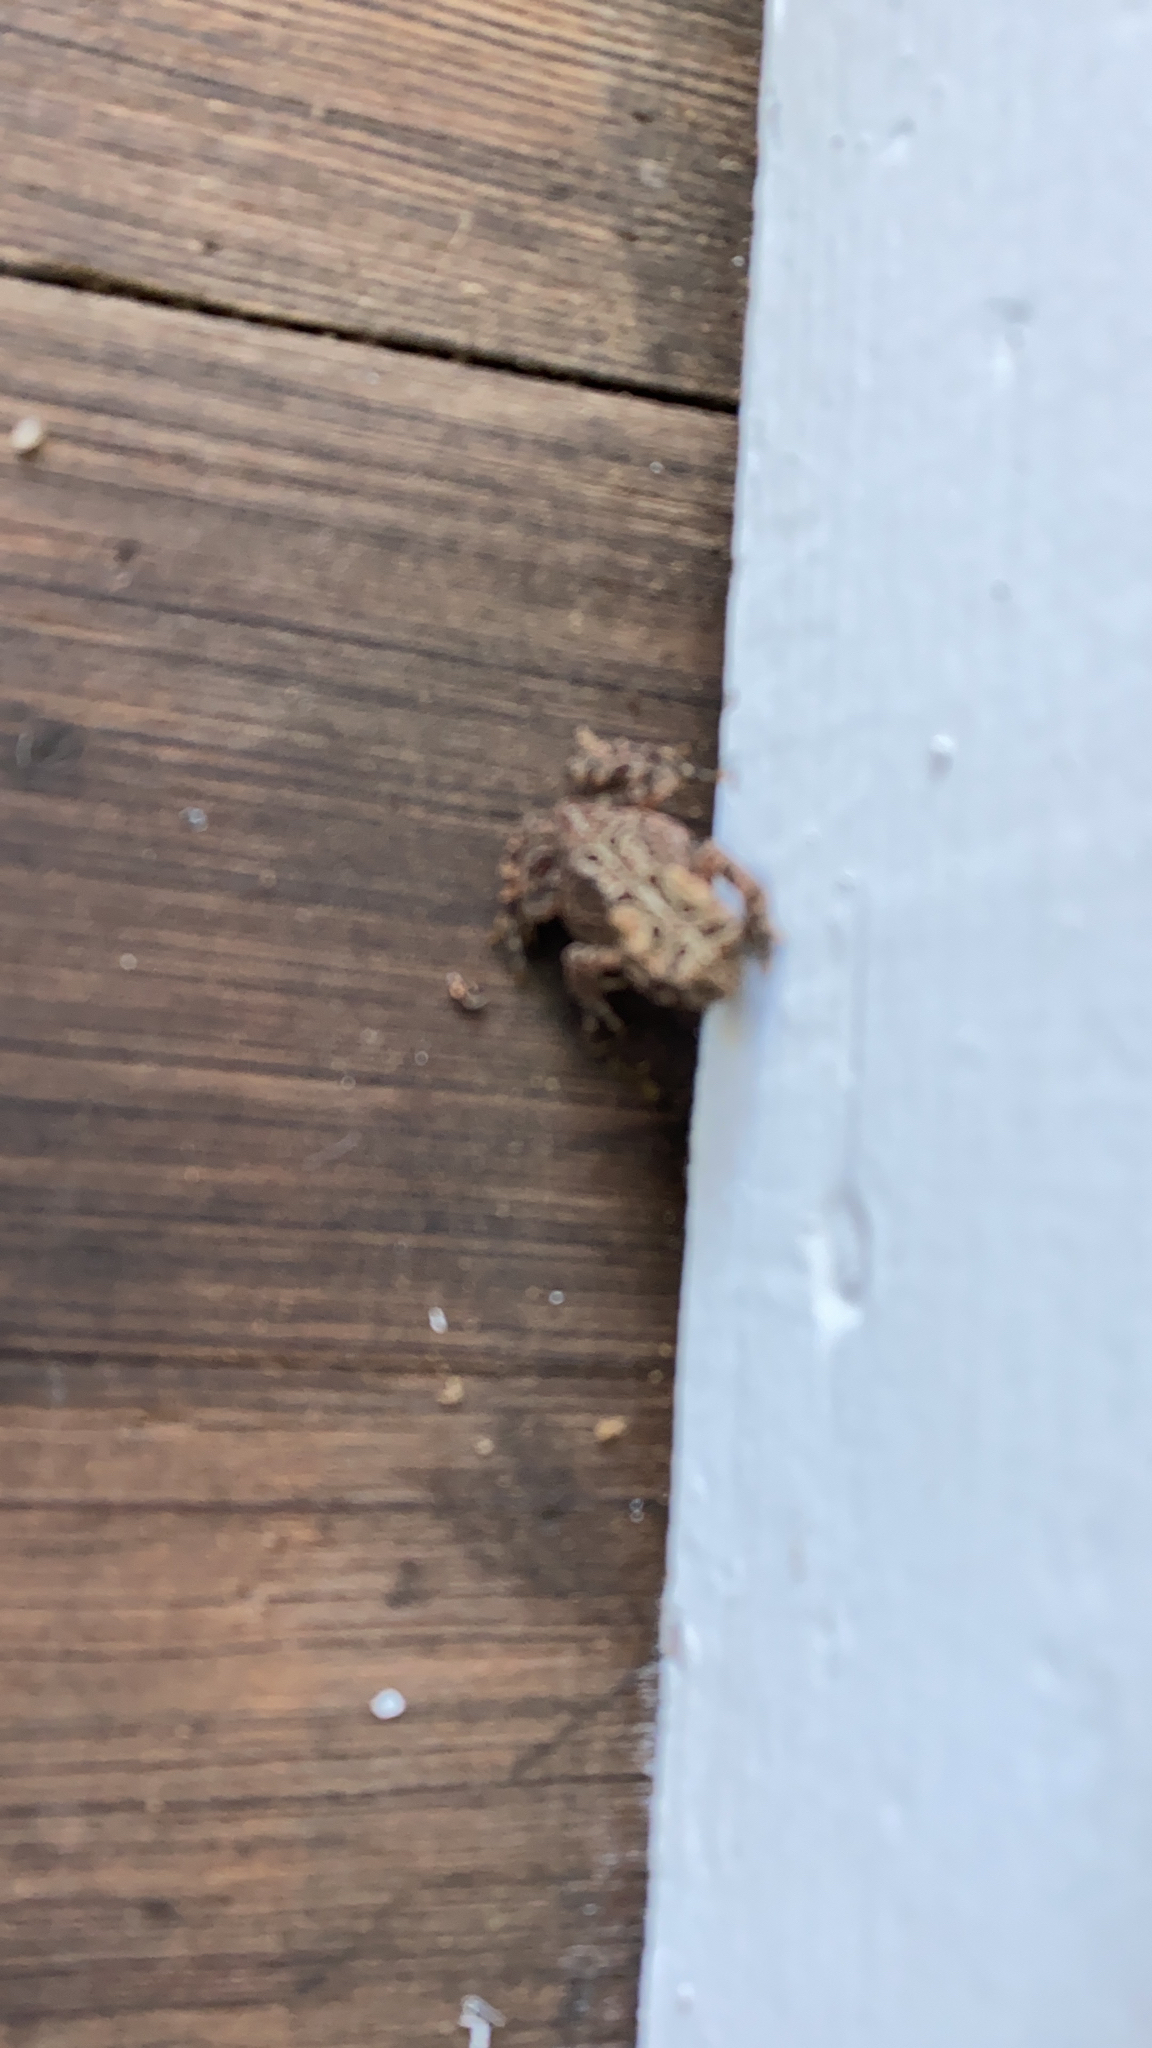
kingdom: Animalia
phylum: Chordata
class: Amphibia
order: Anura
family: Bufonidae
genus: Anaxyrus
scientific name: Anaxyrus americanus
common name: American toad
